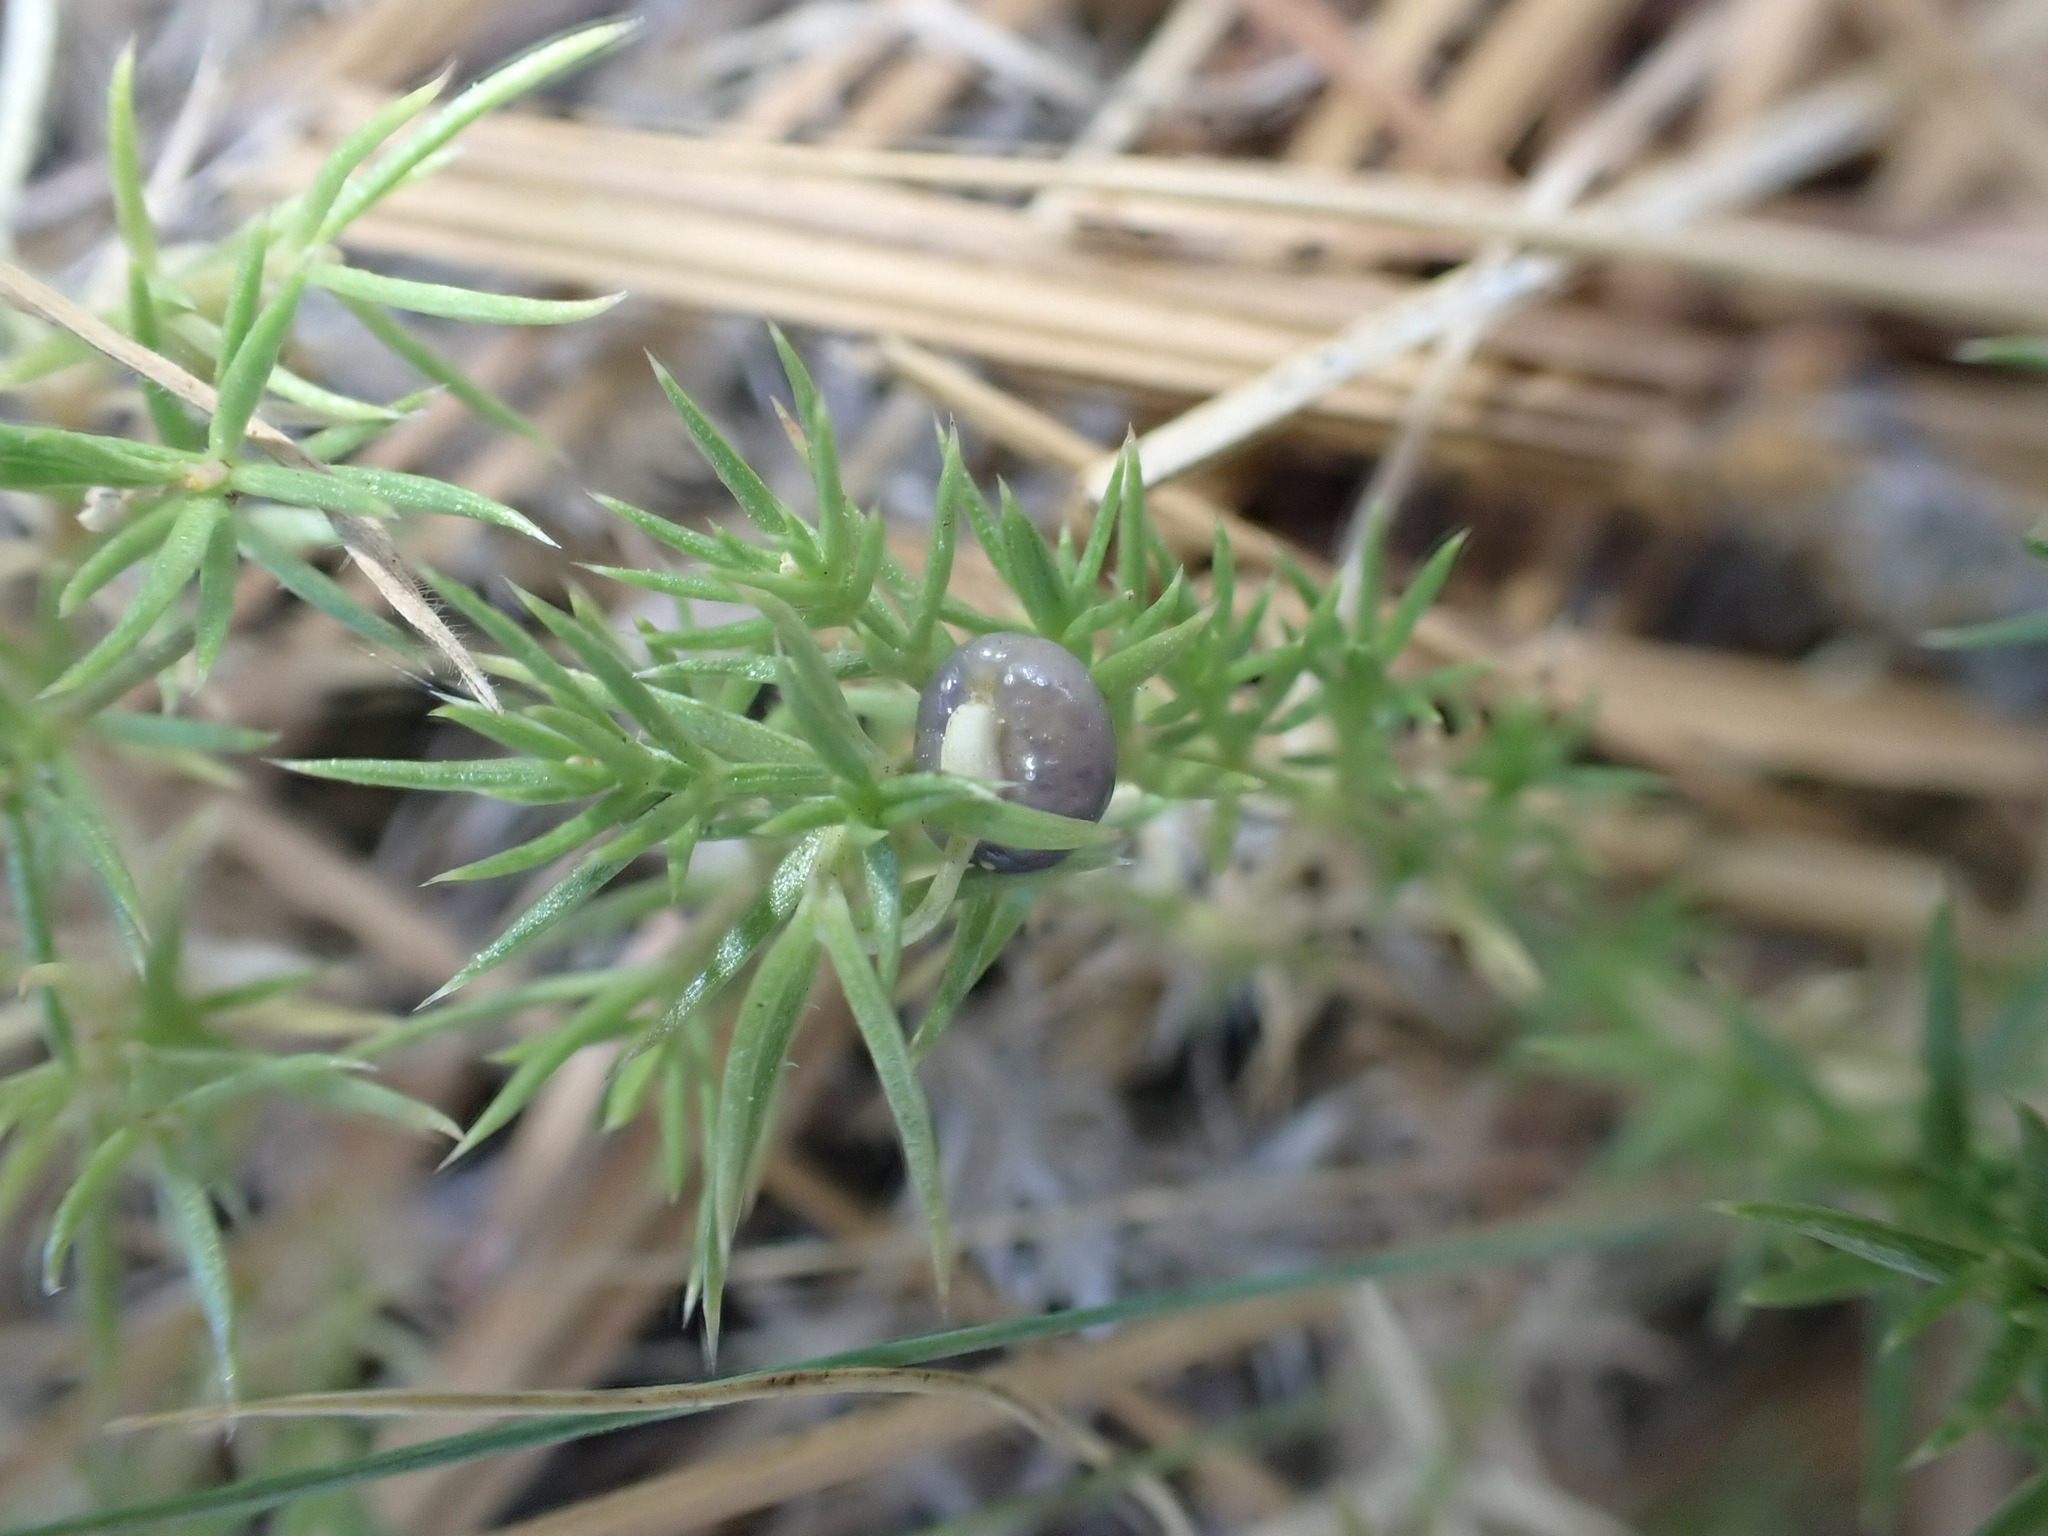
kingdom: Plantae
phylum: Tracheophyta
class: Magnoliopsida
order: Gentianales
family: Rubiaceae
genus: Galium
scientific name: Galium andrewsii
